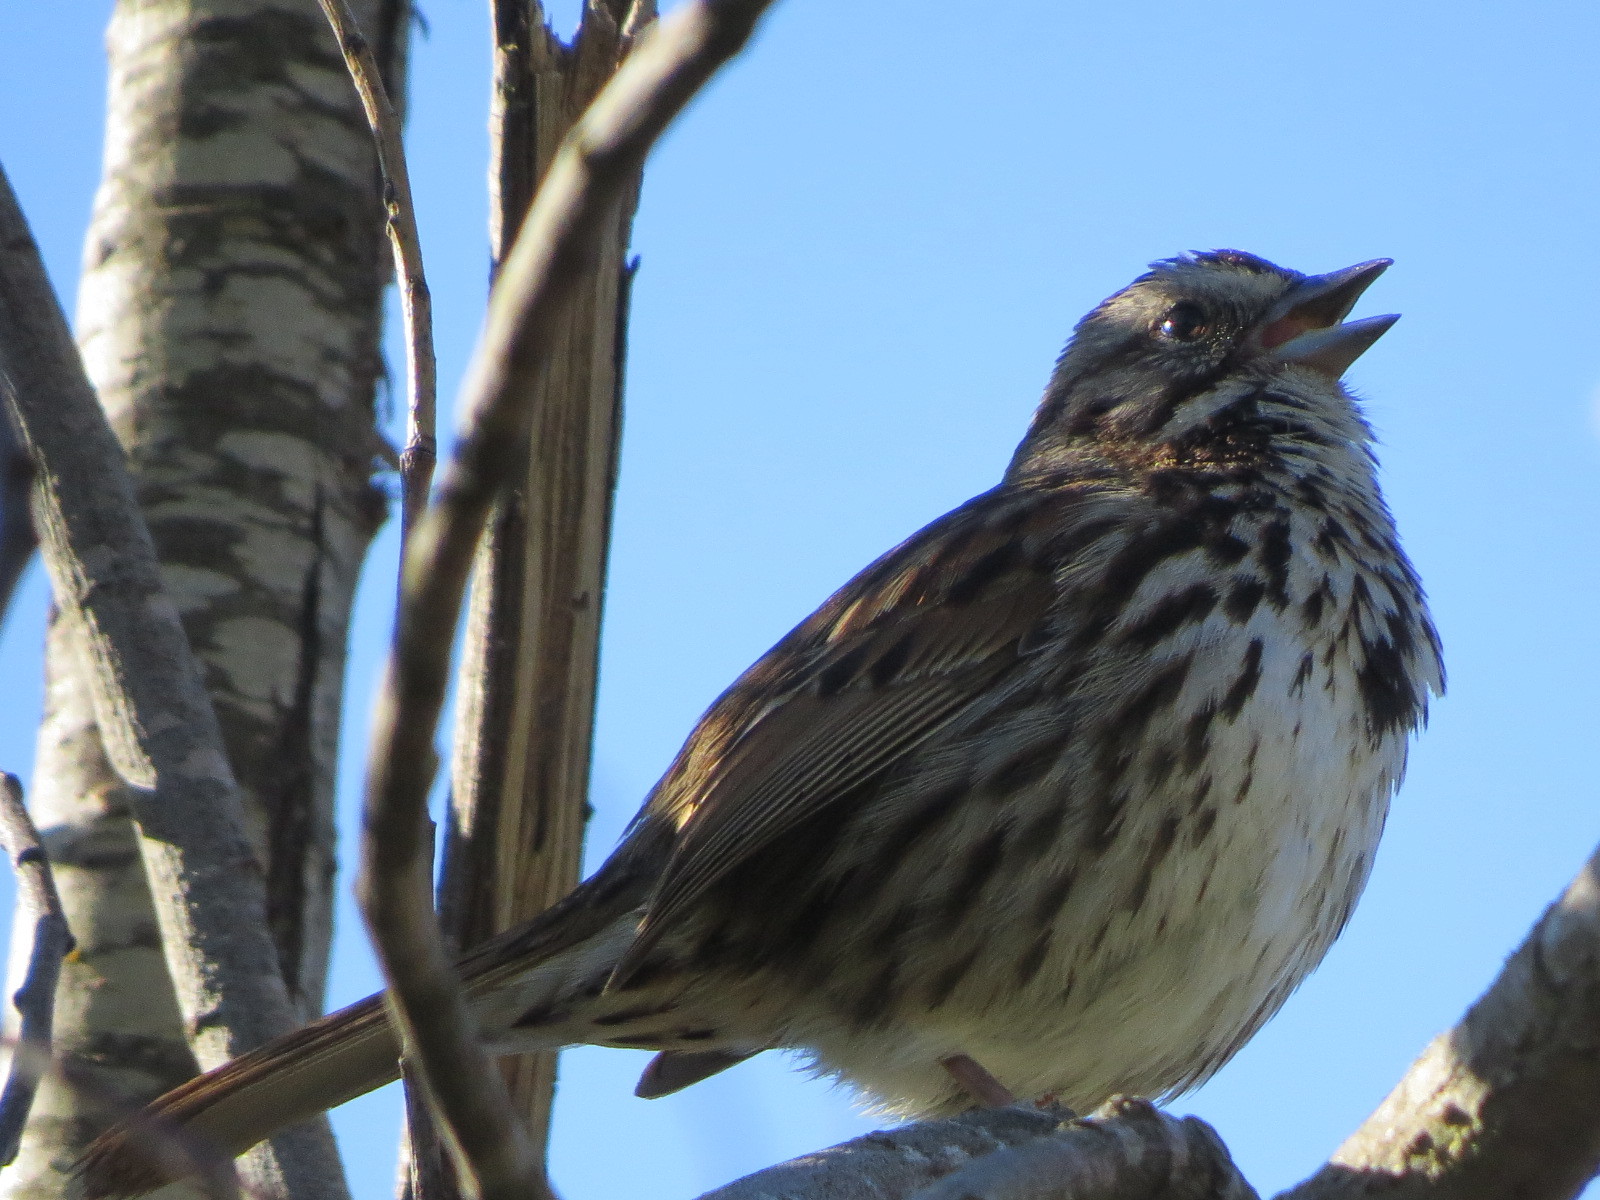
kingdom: Animalia
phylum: Chordata
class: Aves
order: Passeriformes
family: Passerellidae
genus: Melospiza
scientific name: Melospiza melodia
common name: Song sparrow
